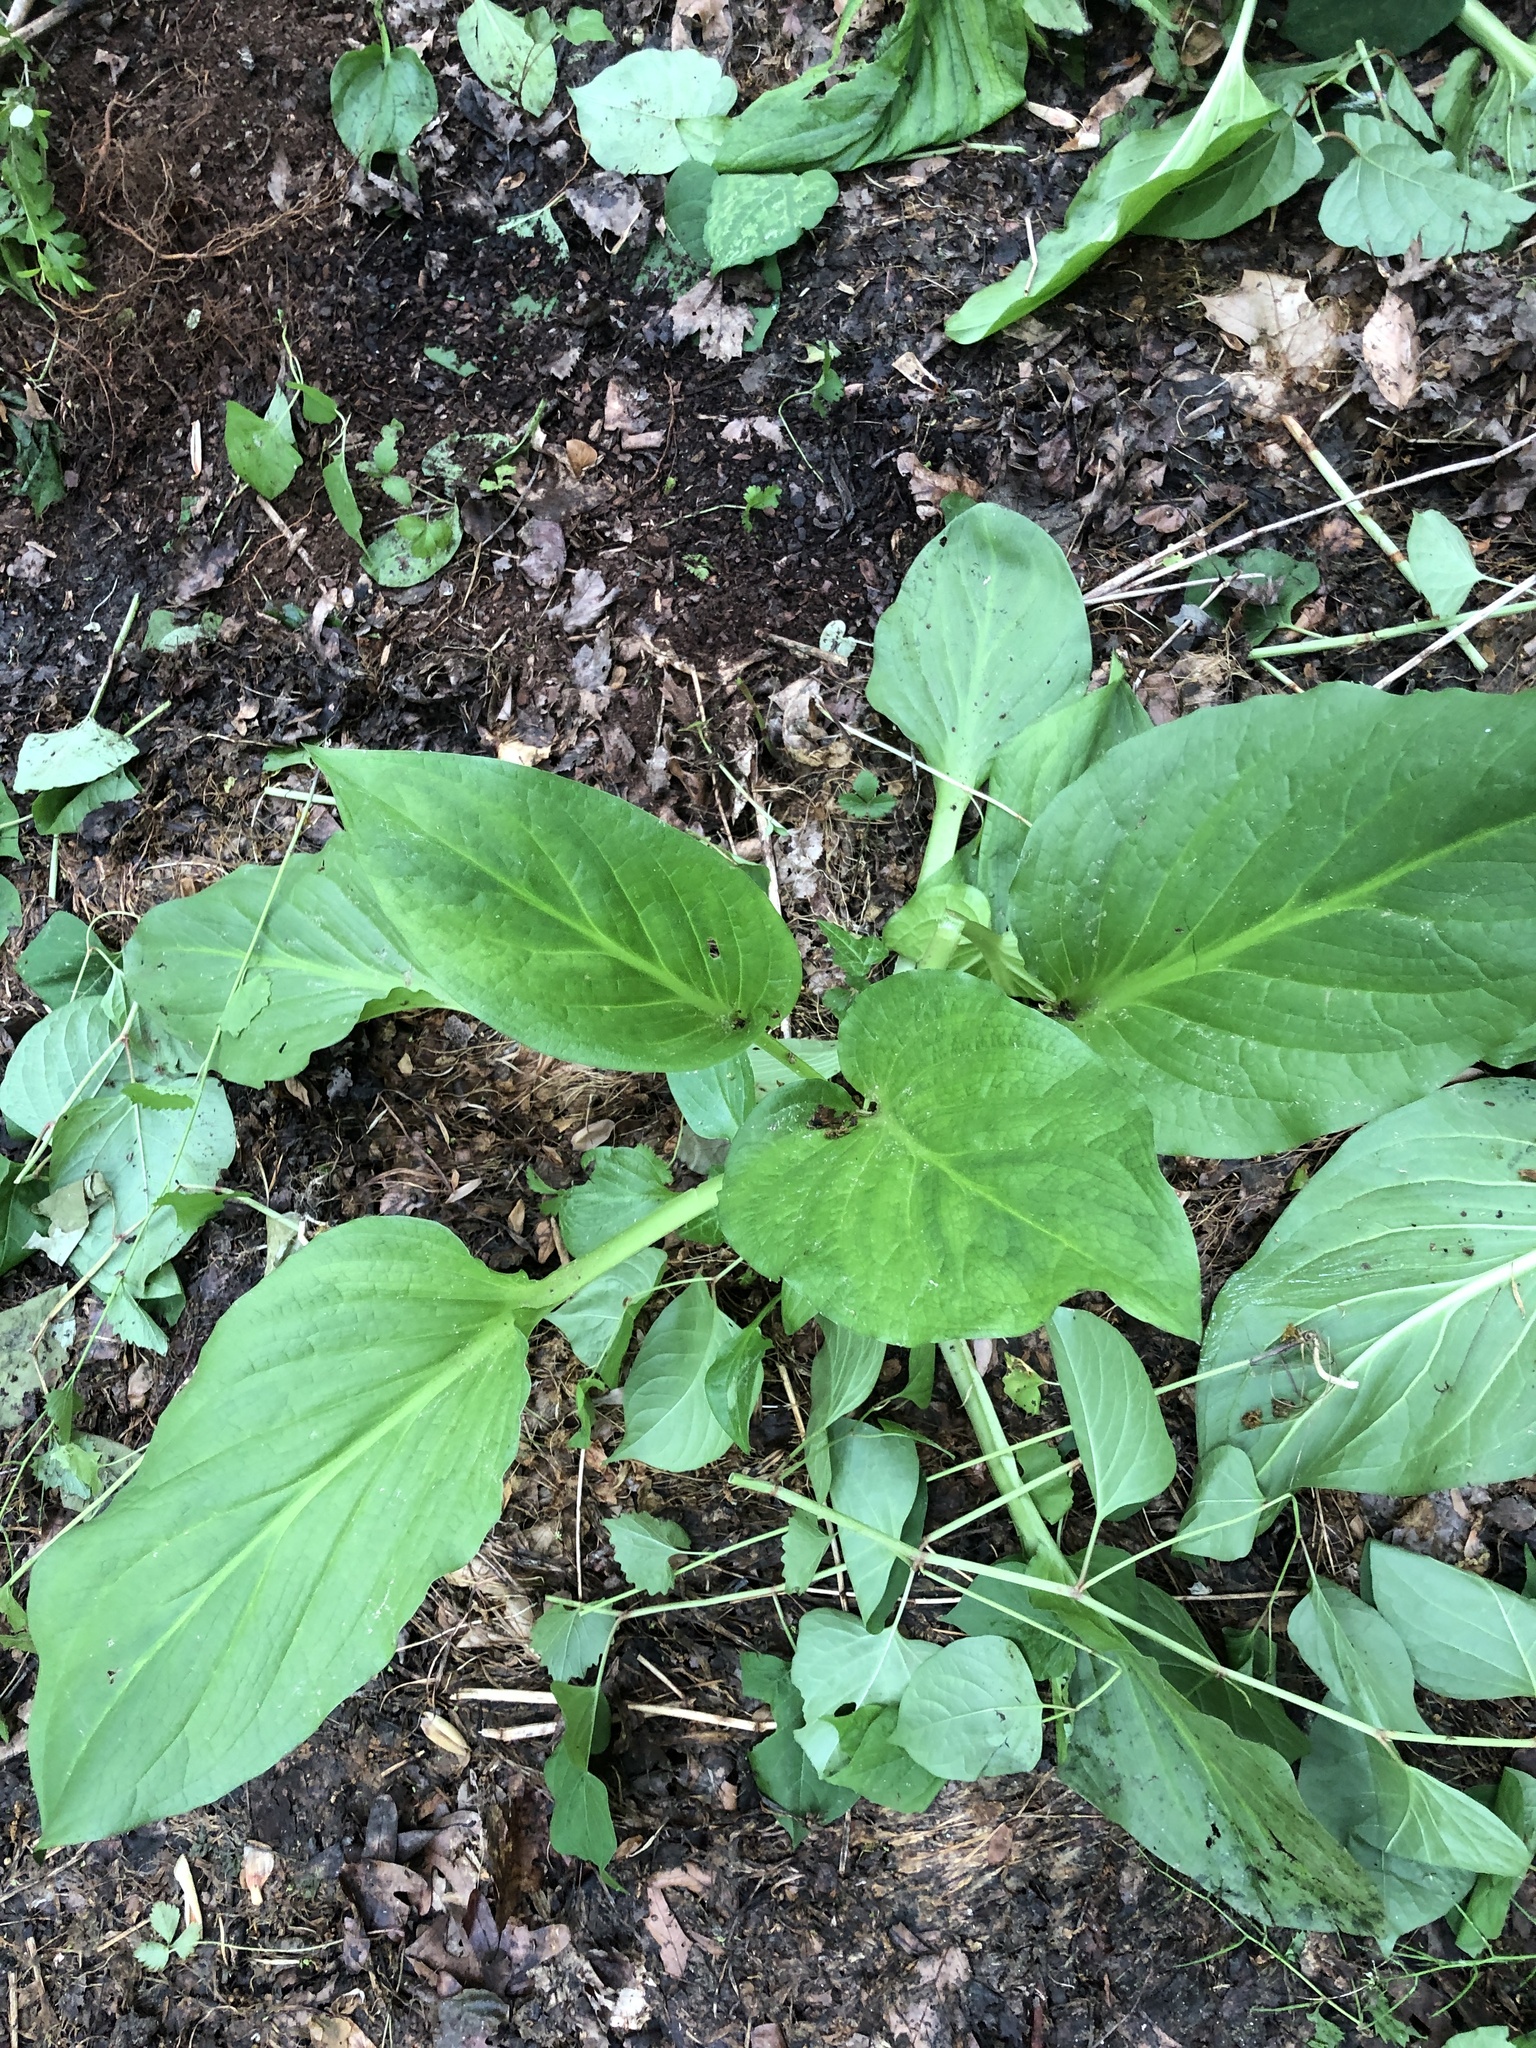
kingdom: Plantae
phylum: Tracheophyta
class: Liliopsida
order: Alismatales
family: Araceae
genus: Symplocarpus
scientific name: Symplocarpus foetidus
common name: Eastern skunk cabbage
